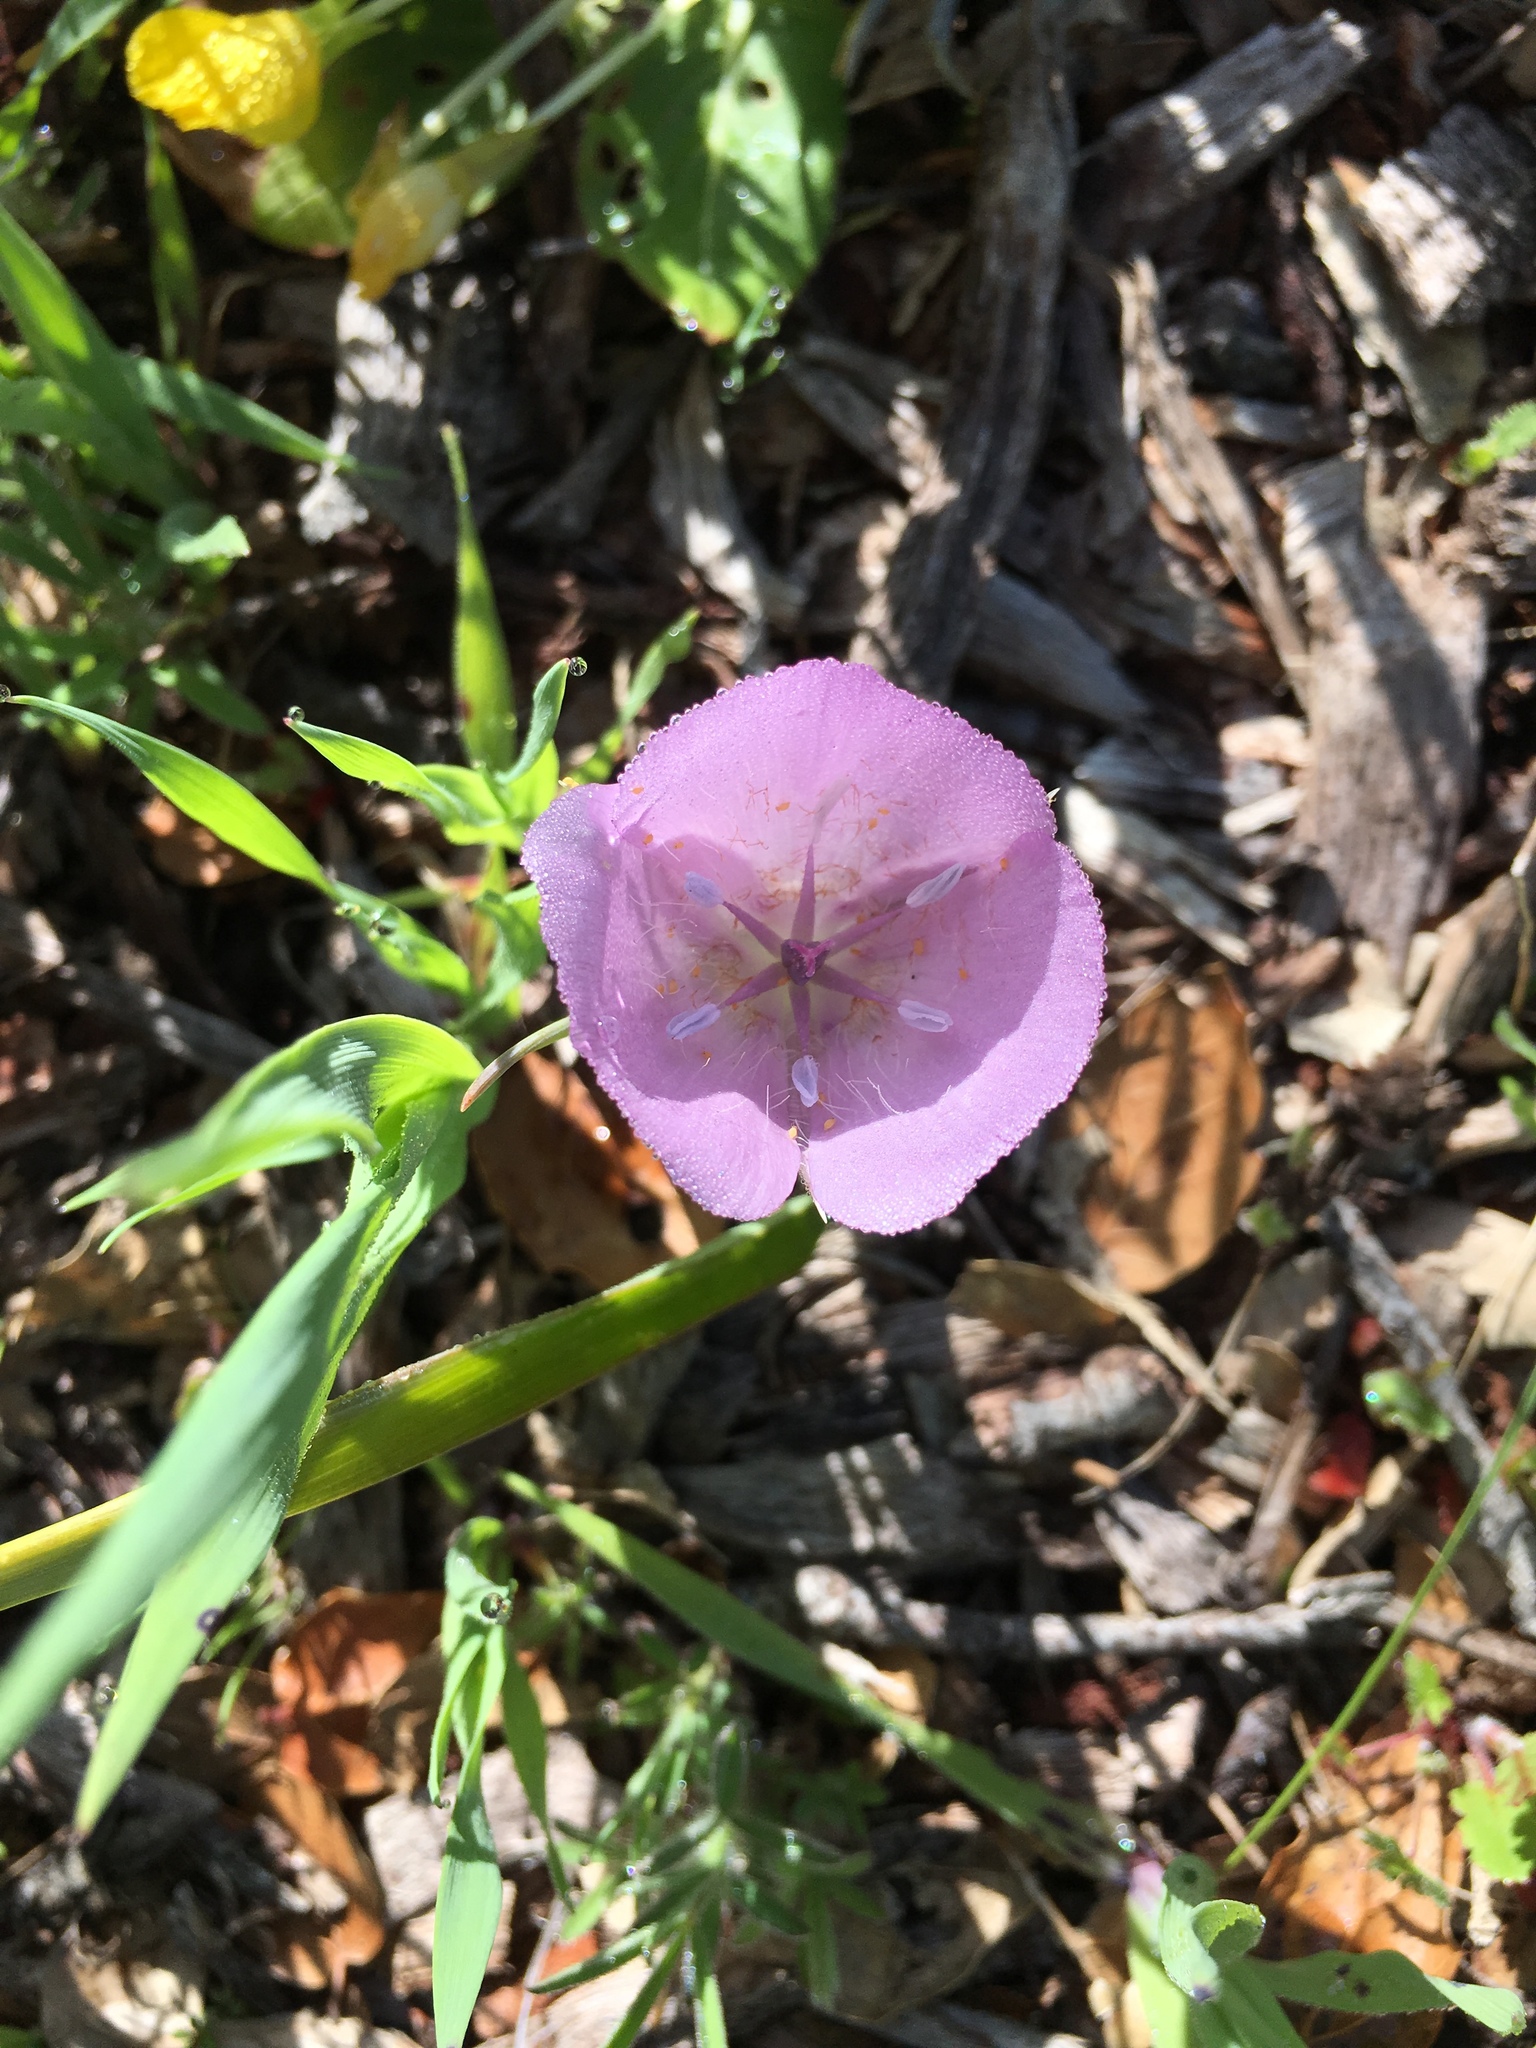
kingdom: Plantae
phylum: Tracheophyta
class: Liliopsida
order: Liliales
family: Liliaceae
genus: Calochortus
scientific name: Calochortus uniflorus
